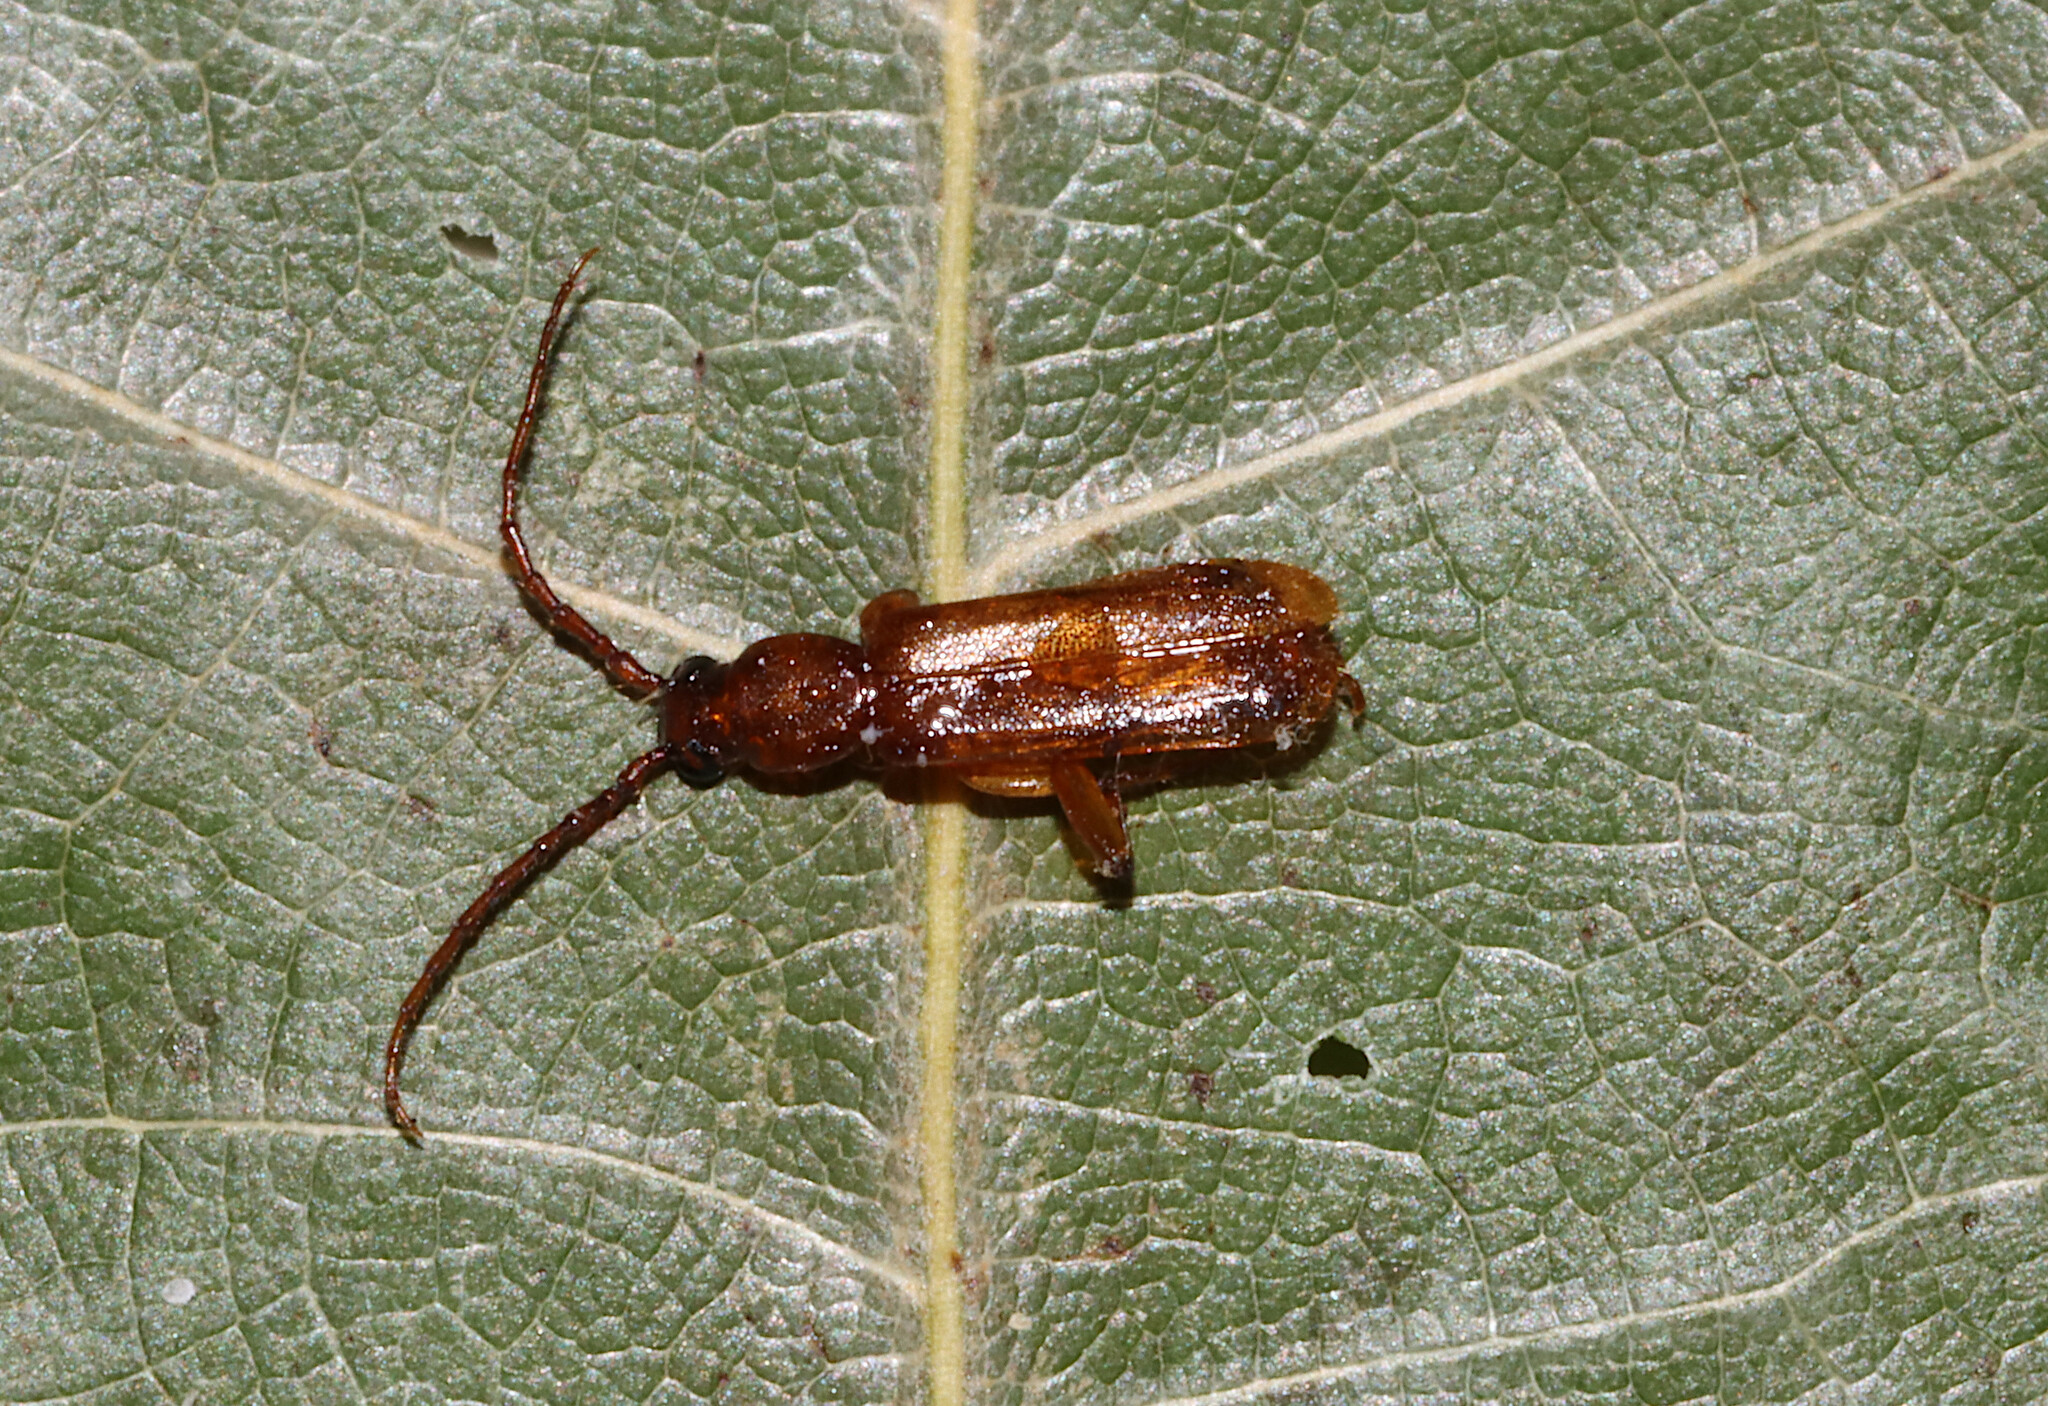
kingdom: Animalia
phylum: Arthropoda
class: Insecta
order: Coleoptera
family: Cerambycidae
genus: Smodicum
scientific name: Smodicum cucujiforme
